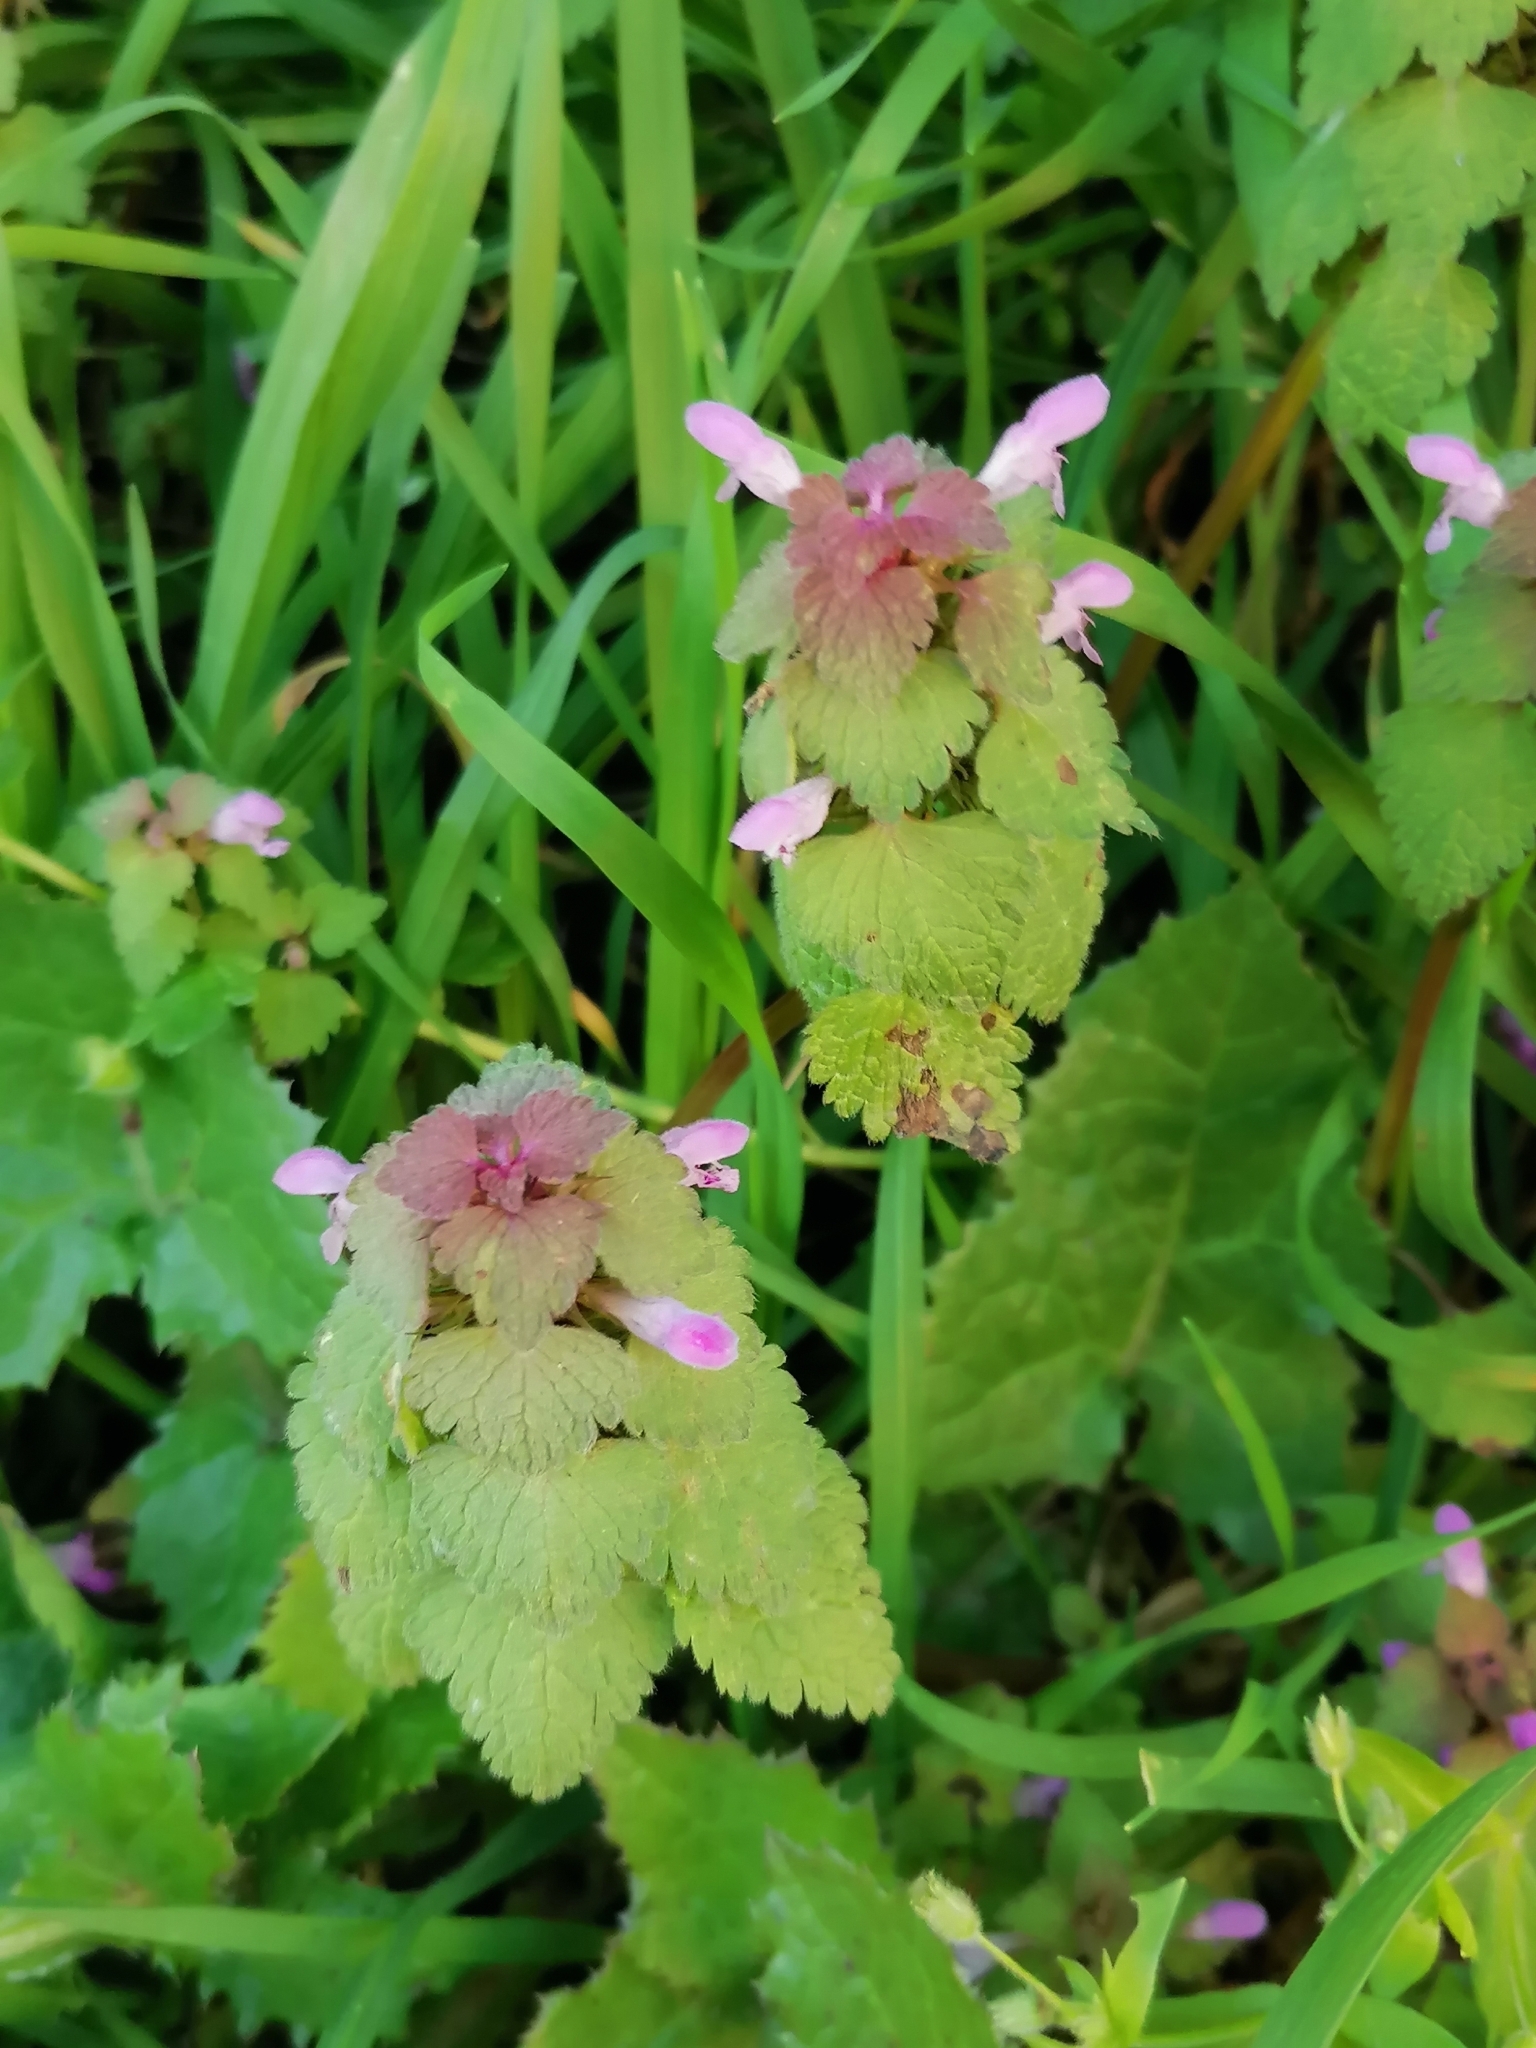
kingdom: Plantae
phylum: Tracheophyta
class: Magnoliopsida
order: Lamiales
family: Lamiaceae
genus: Lamium
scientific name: Lamium purpureum
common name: Red dead-nettle
